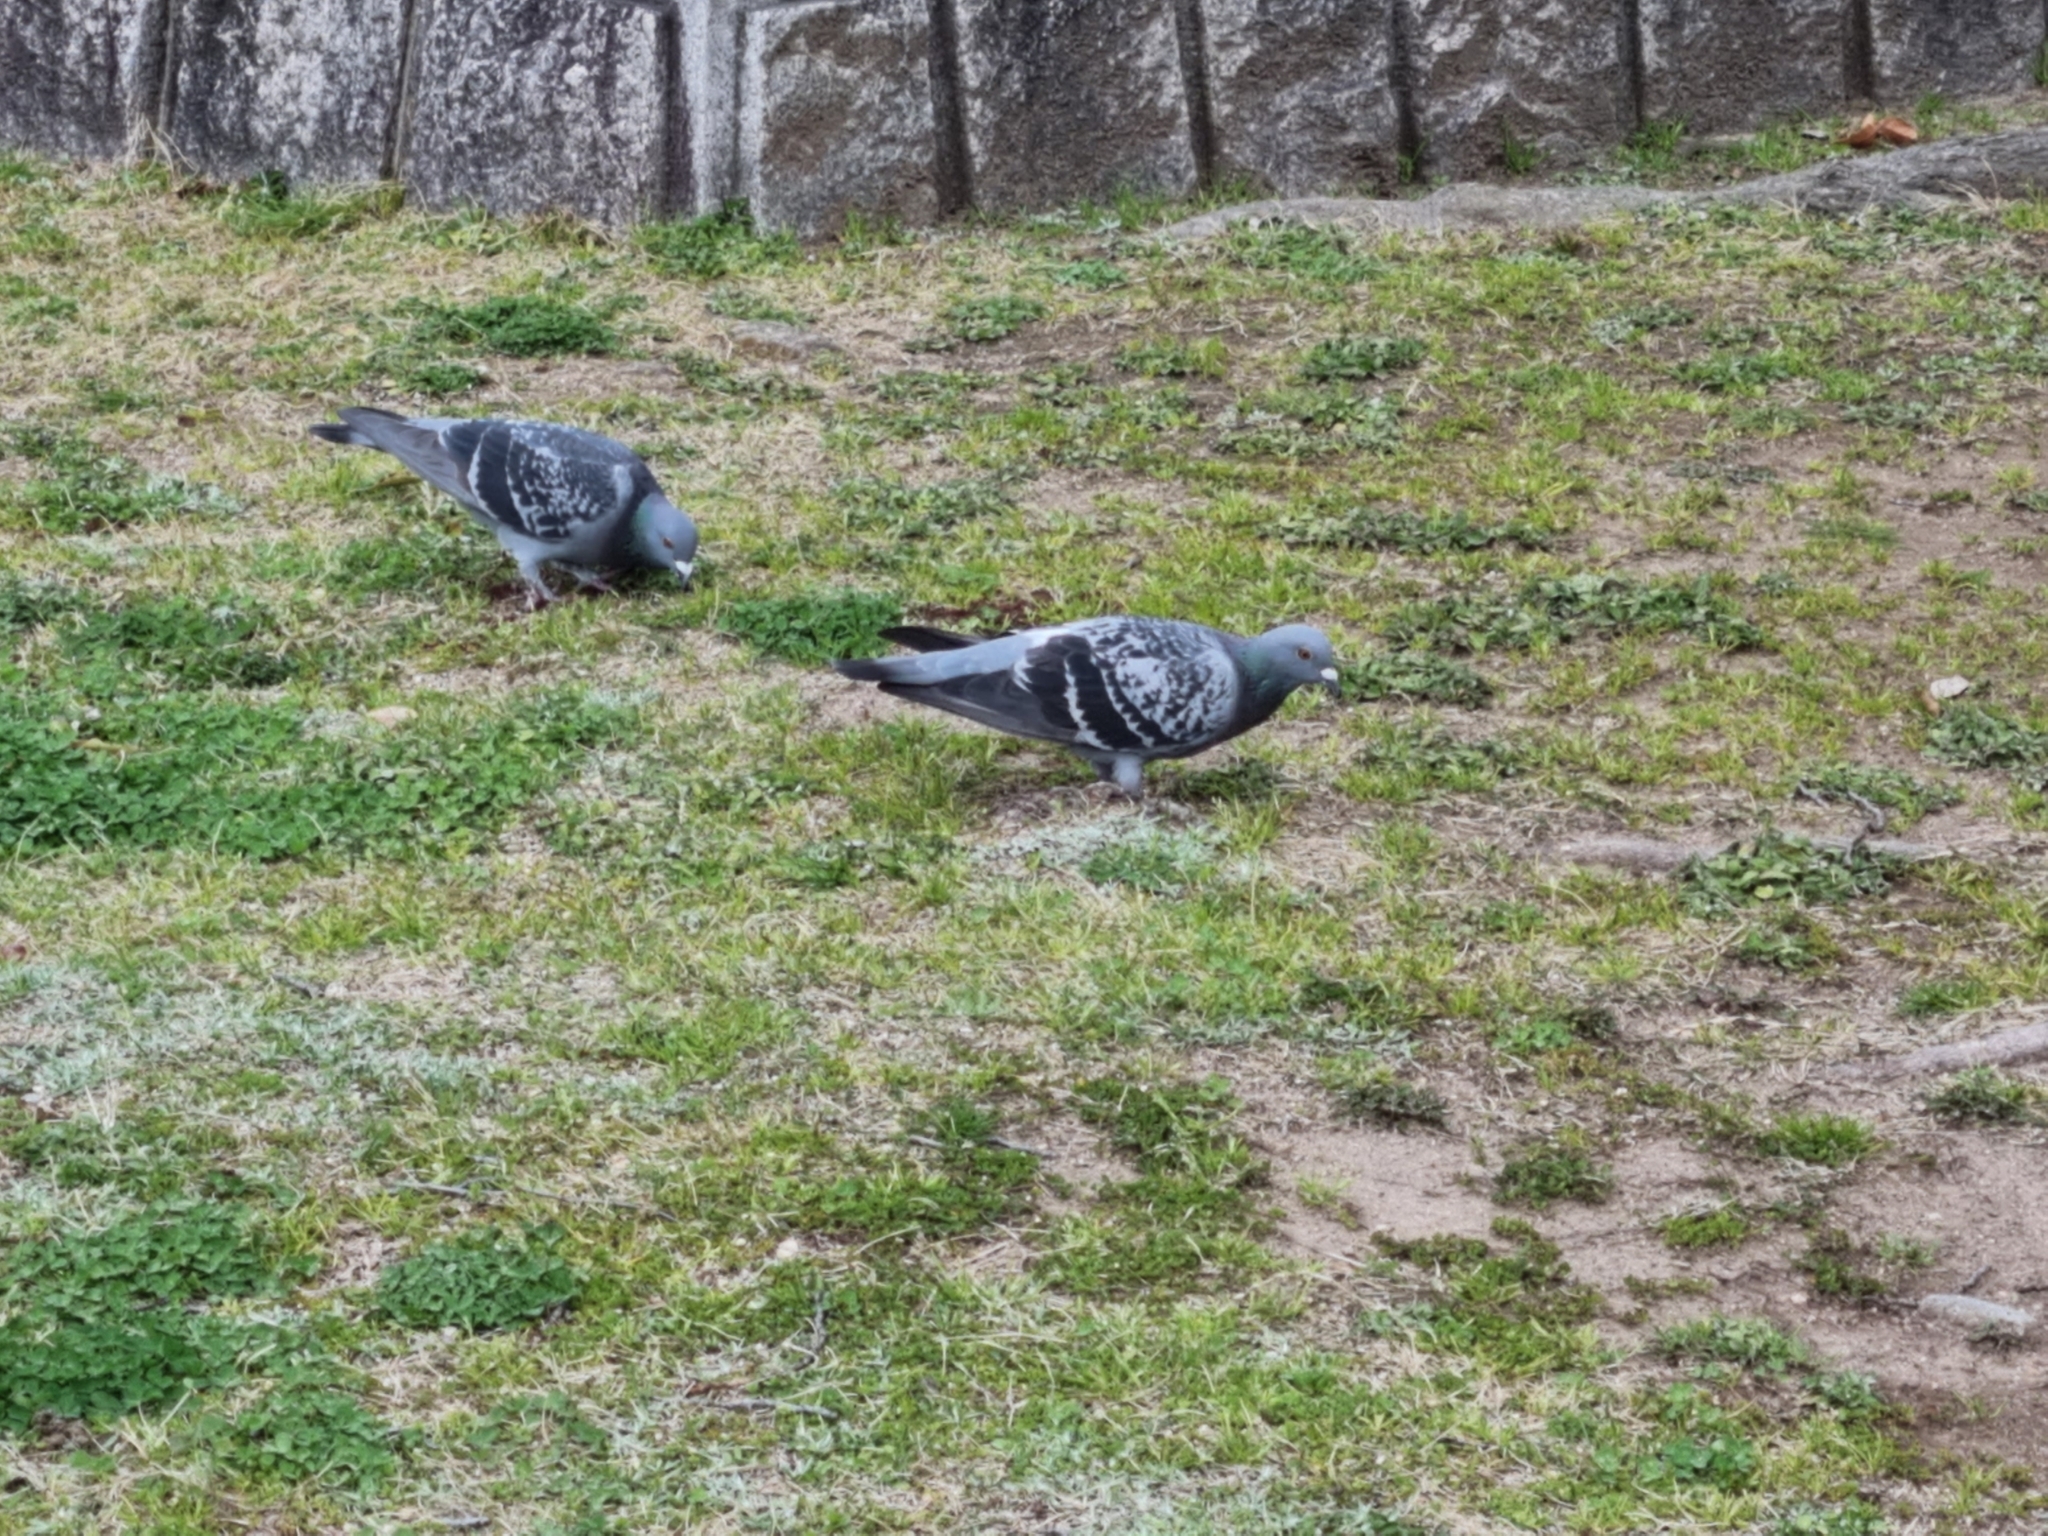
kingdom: Animalia
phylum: Chordata
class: Aves
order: Columbiformes
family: Columbidae
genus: Columba
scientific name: Columba livia
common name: Rock pigeon
